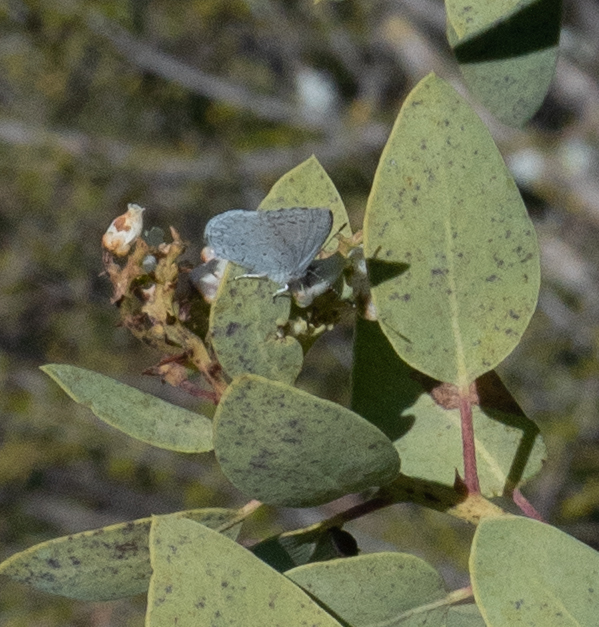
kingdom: Animalia
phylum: Arthropoda
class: Insecta
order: Lepidoptera
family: Lycaenidae
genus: Celastrina
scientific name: Celastrina ladon
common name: Spring azure
